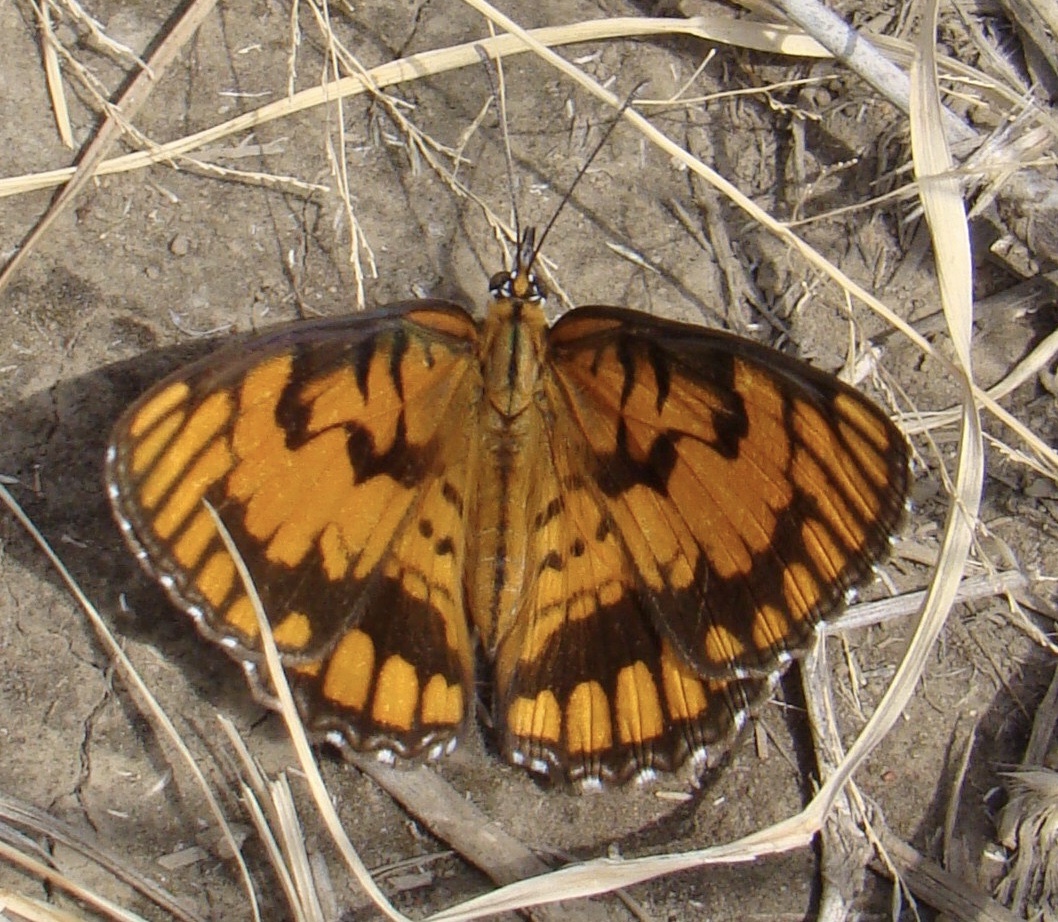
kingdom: Animalia
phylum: Arthropoda
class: Insecta
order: Lepidoptera
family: Nymphalidae
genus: Byblia
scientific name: Byblia ilithyia
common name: Spotted joker
